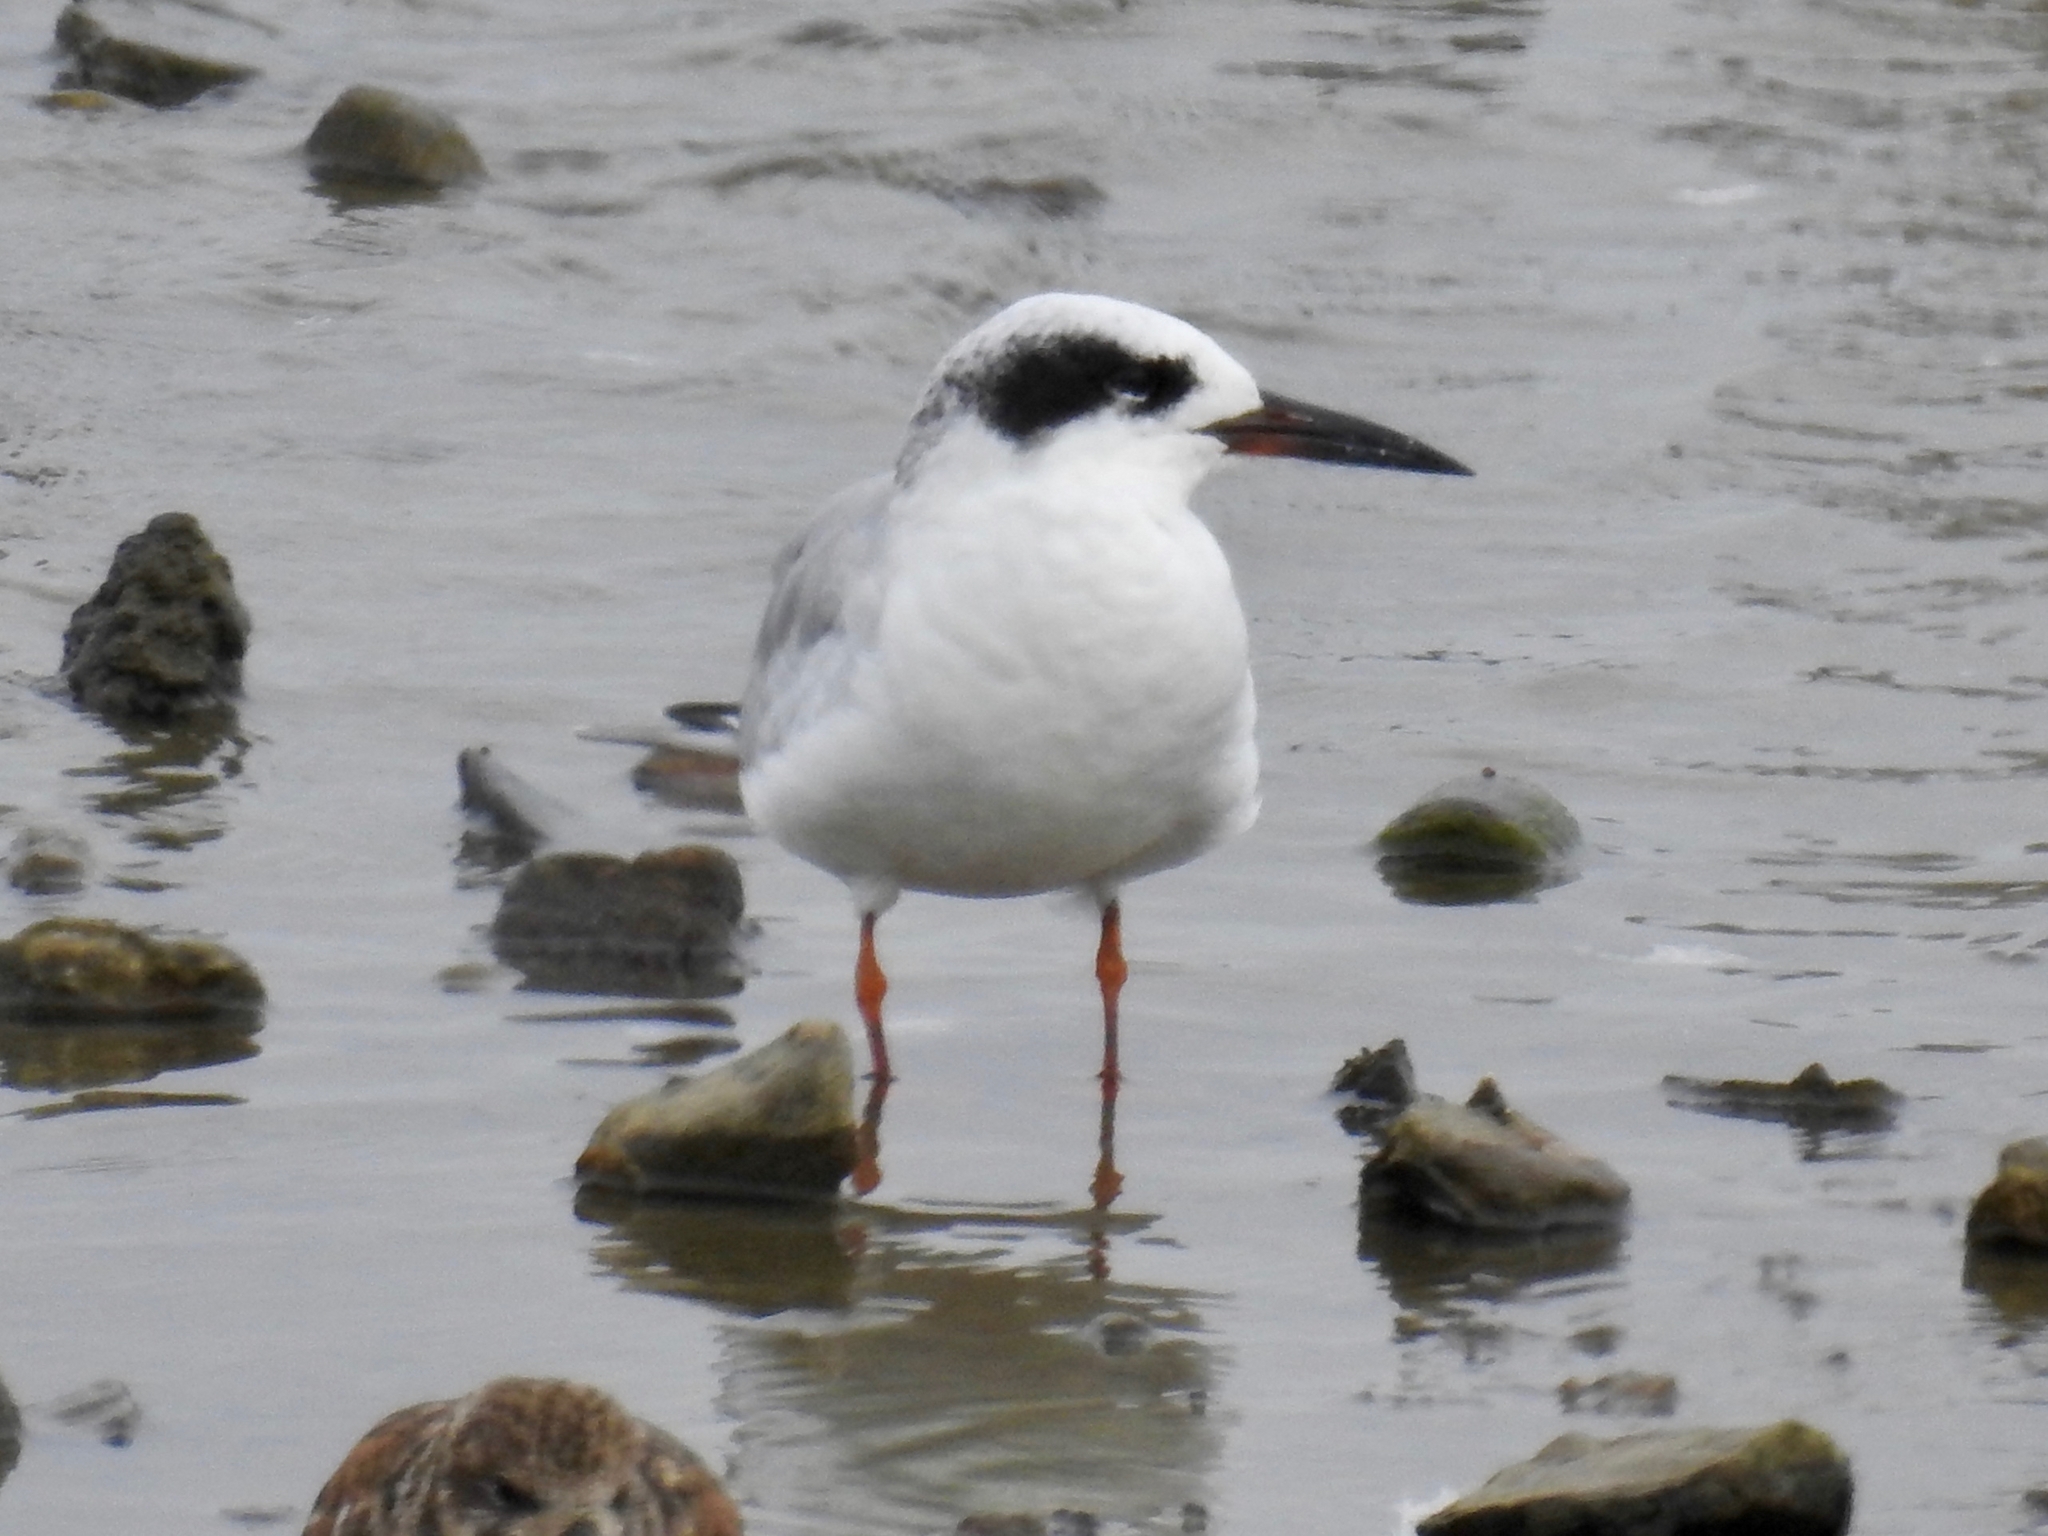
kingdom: Animalia
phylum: Chordata
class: Aves
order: Charadriiformes
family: Laridae
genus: Sterna
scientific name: Sterna forsteri
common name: Forster's tern
